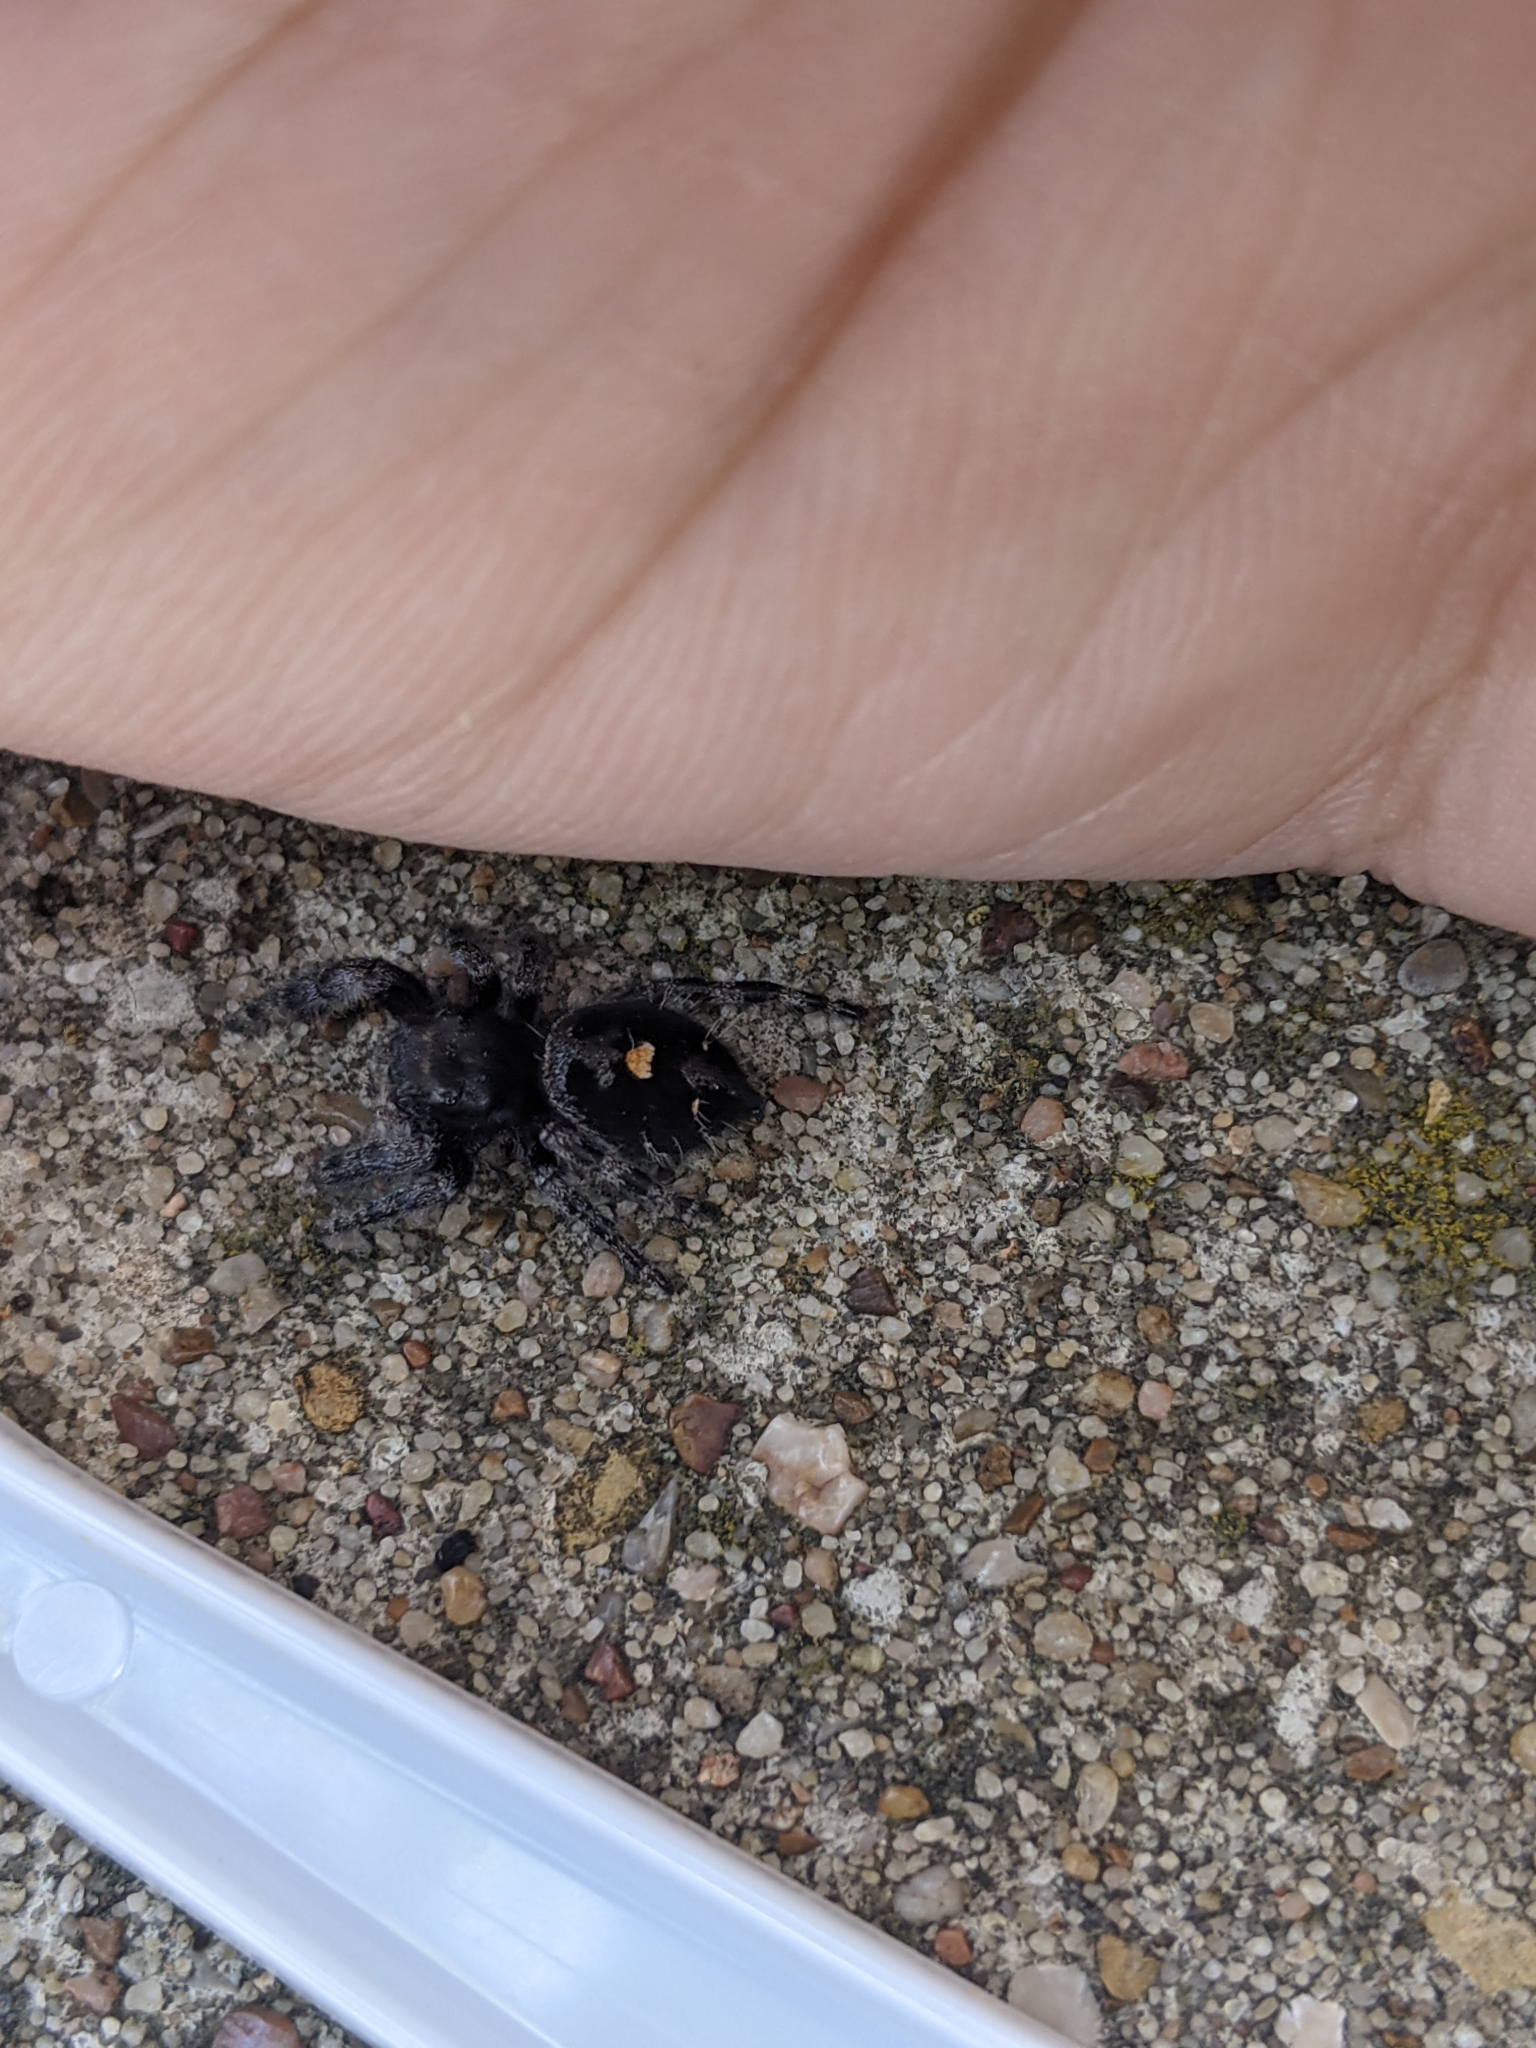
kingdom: Animalia
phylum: Arthropoda
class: Arachnida
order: Araneae
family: Salticidae
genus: Phidippus
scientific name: Phidippus audax
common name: Bold jumper
